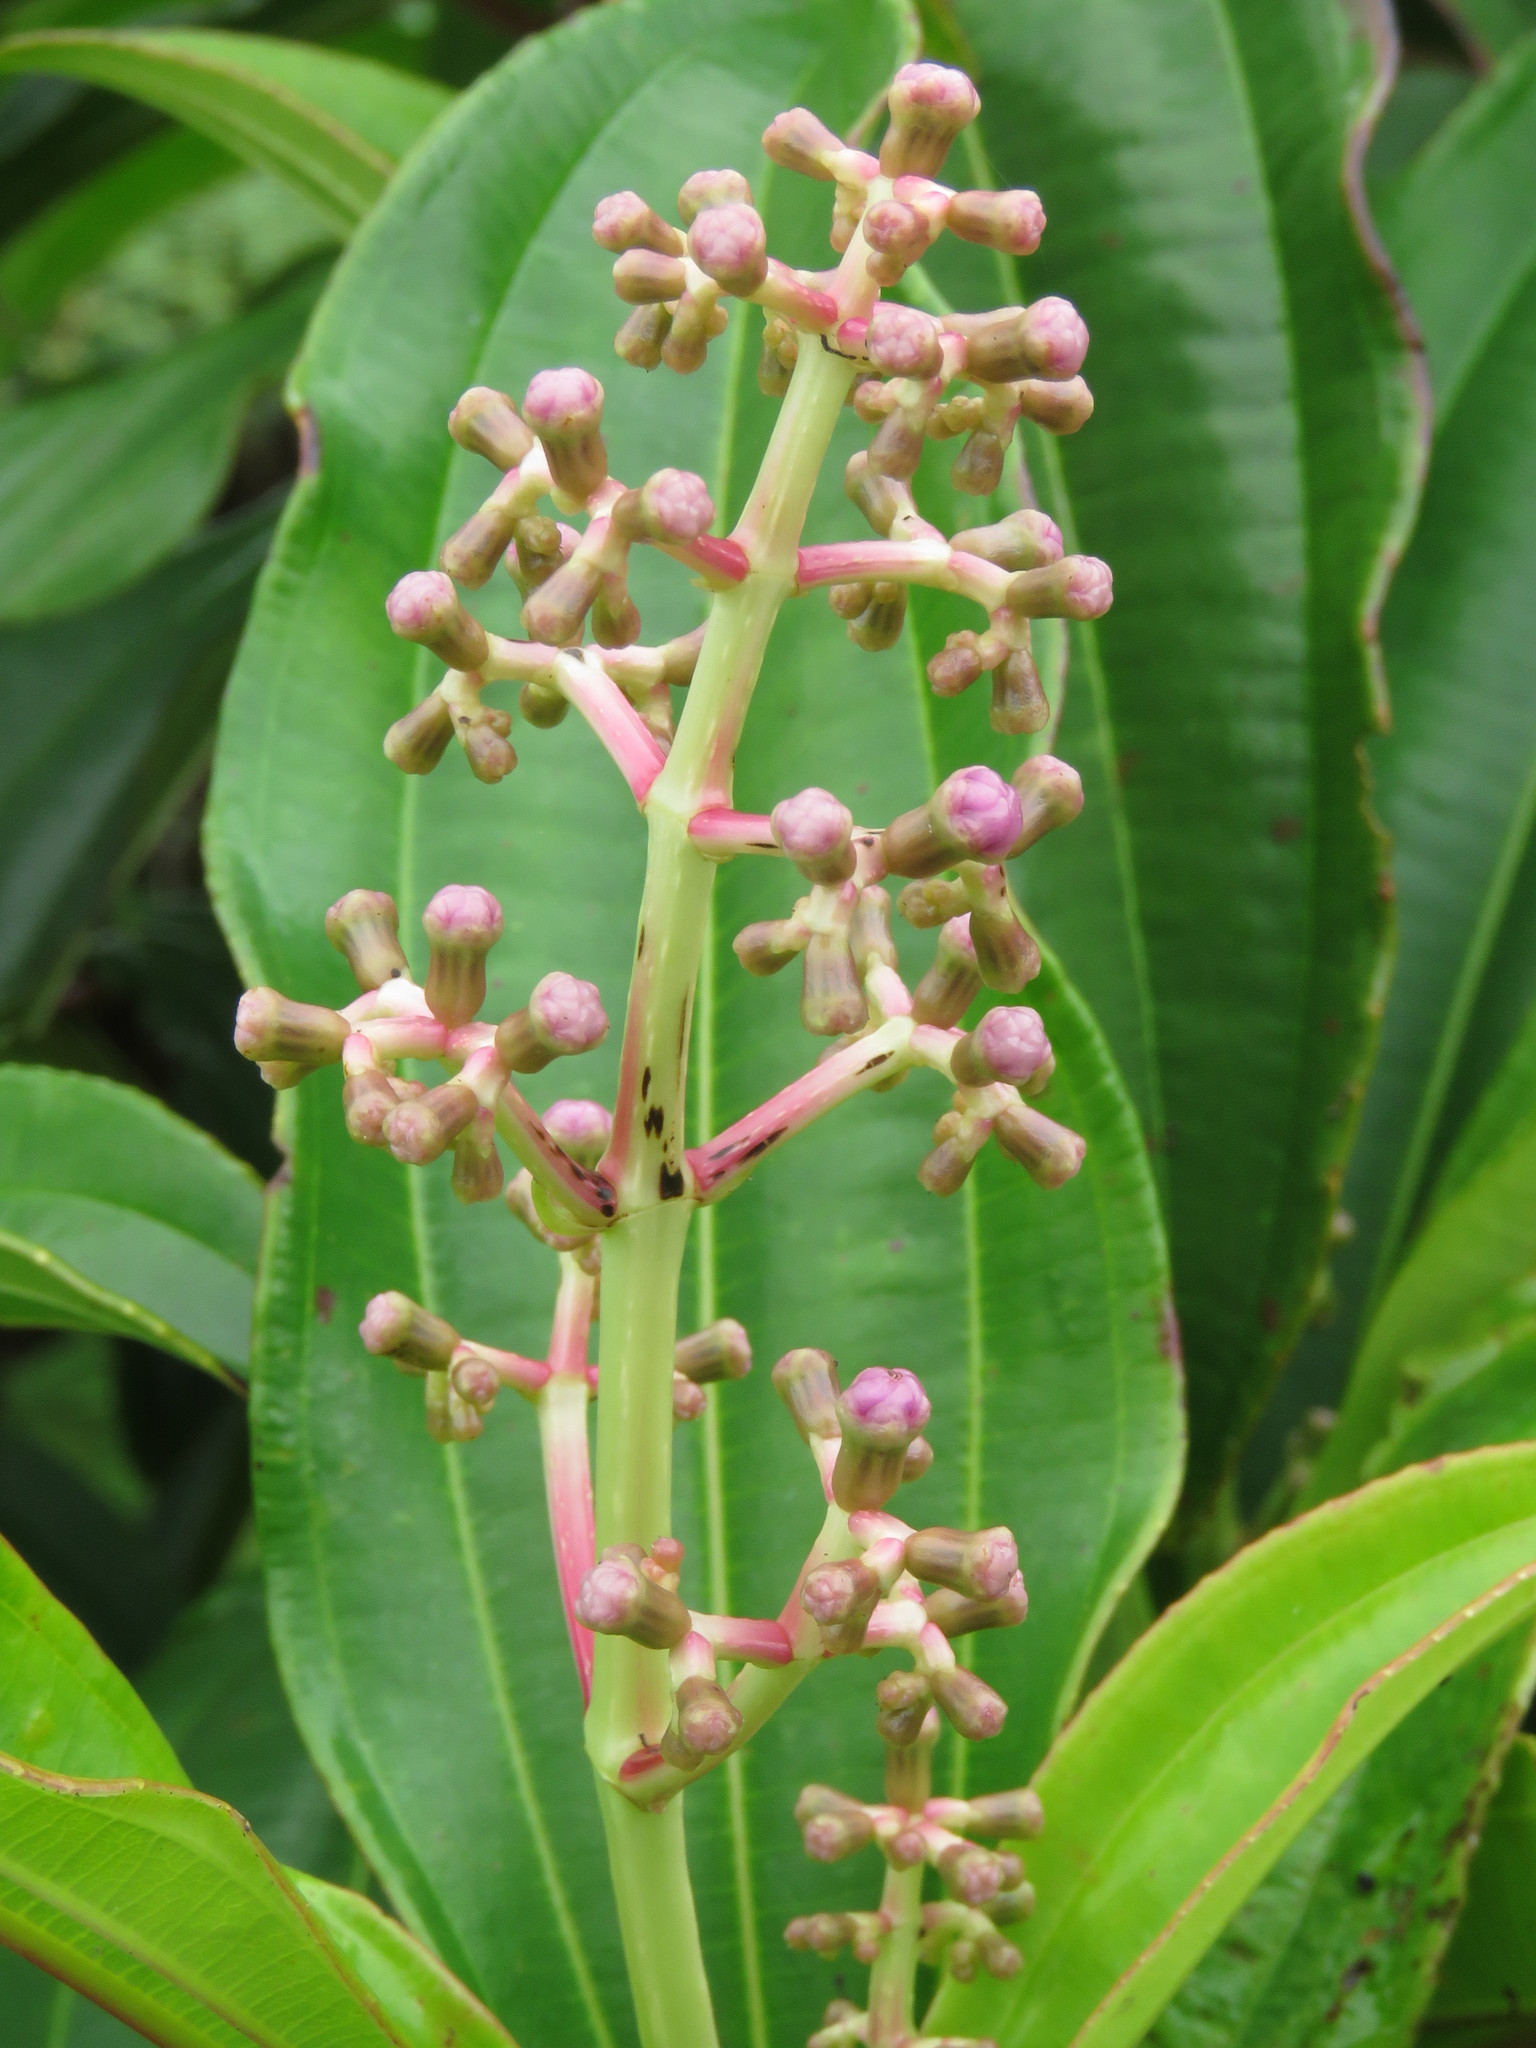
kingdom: Plantae
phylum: Tracheophyta
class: Magnoliopsida
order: Myrtales
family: Melastomataceae
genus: Miconia
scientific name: Miconia robinsoniana
